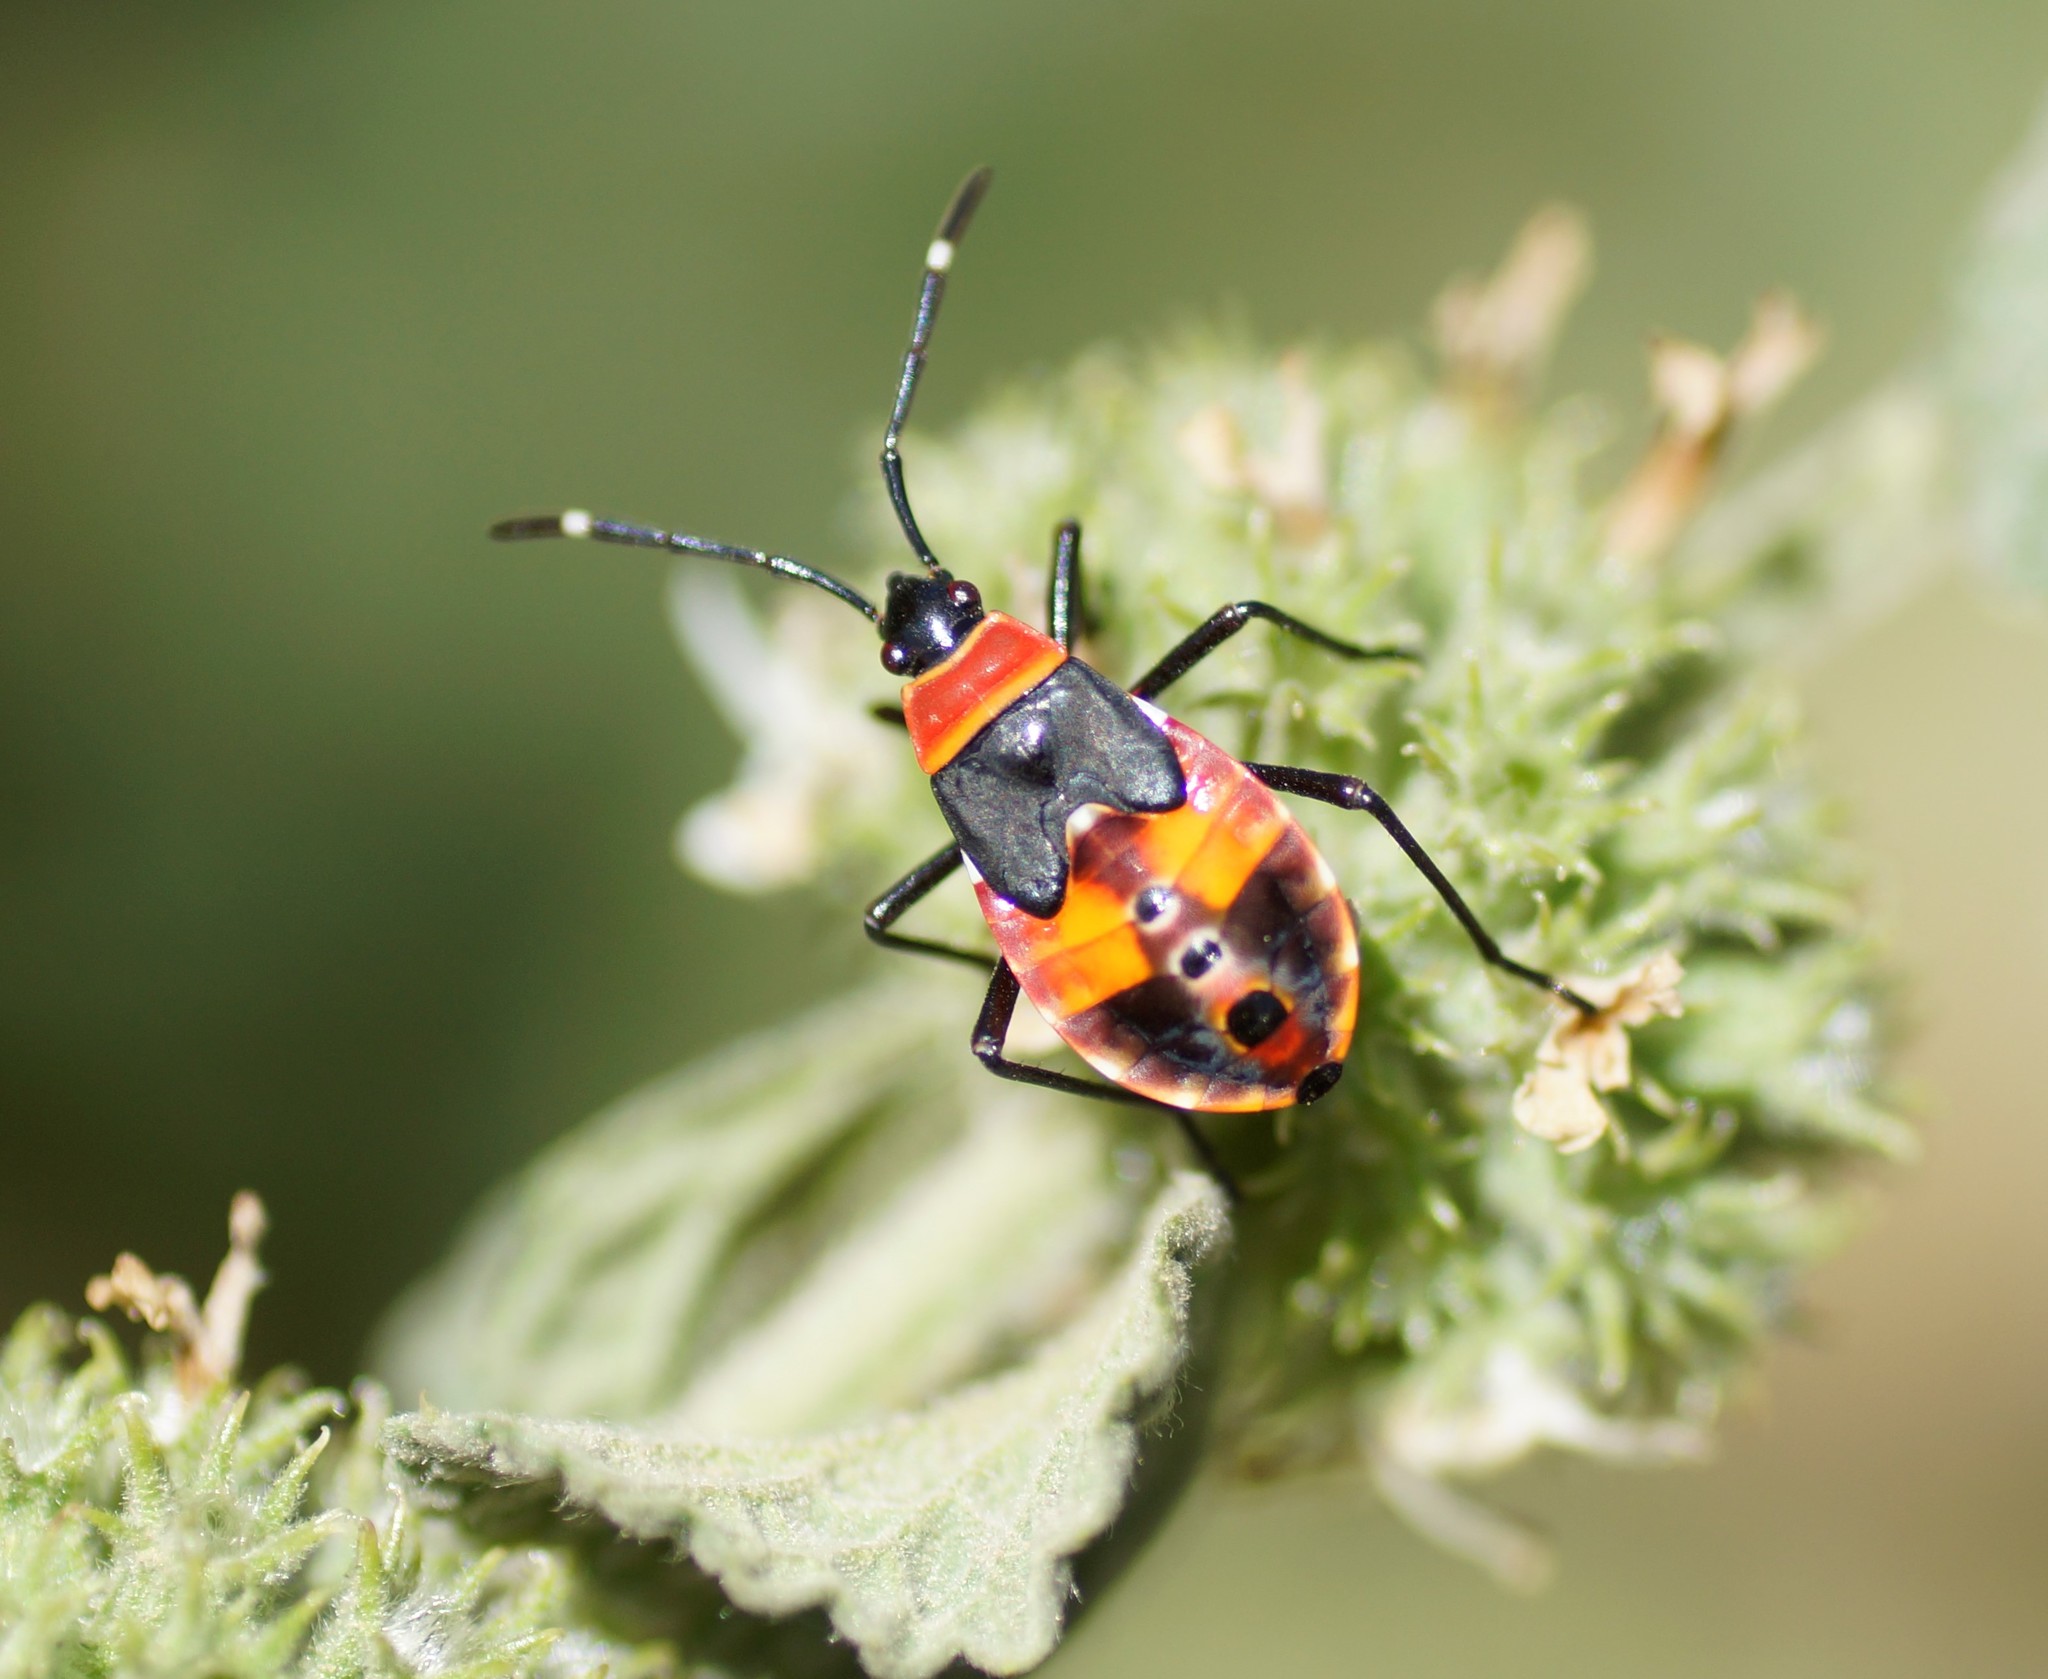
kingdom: Animalia
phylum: Arthropoda
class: Insecta
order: Hemiptera
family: Pyrrhocoridae
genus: Dindymus
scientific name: Dindymus
